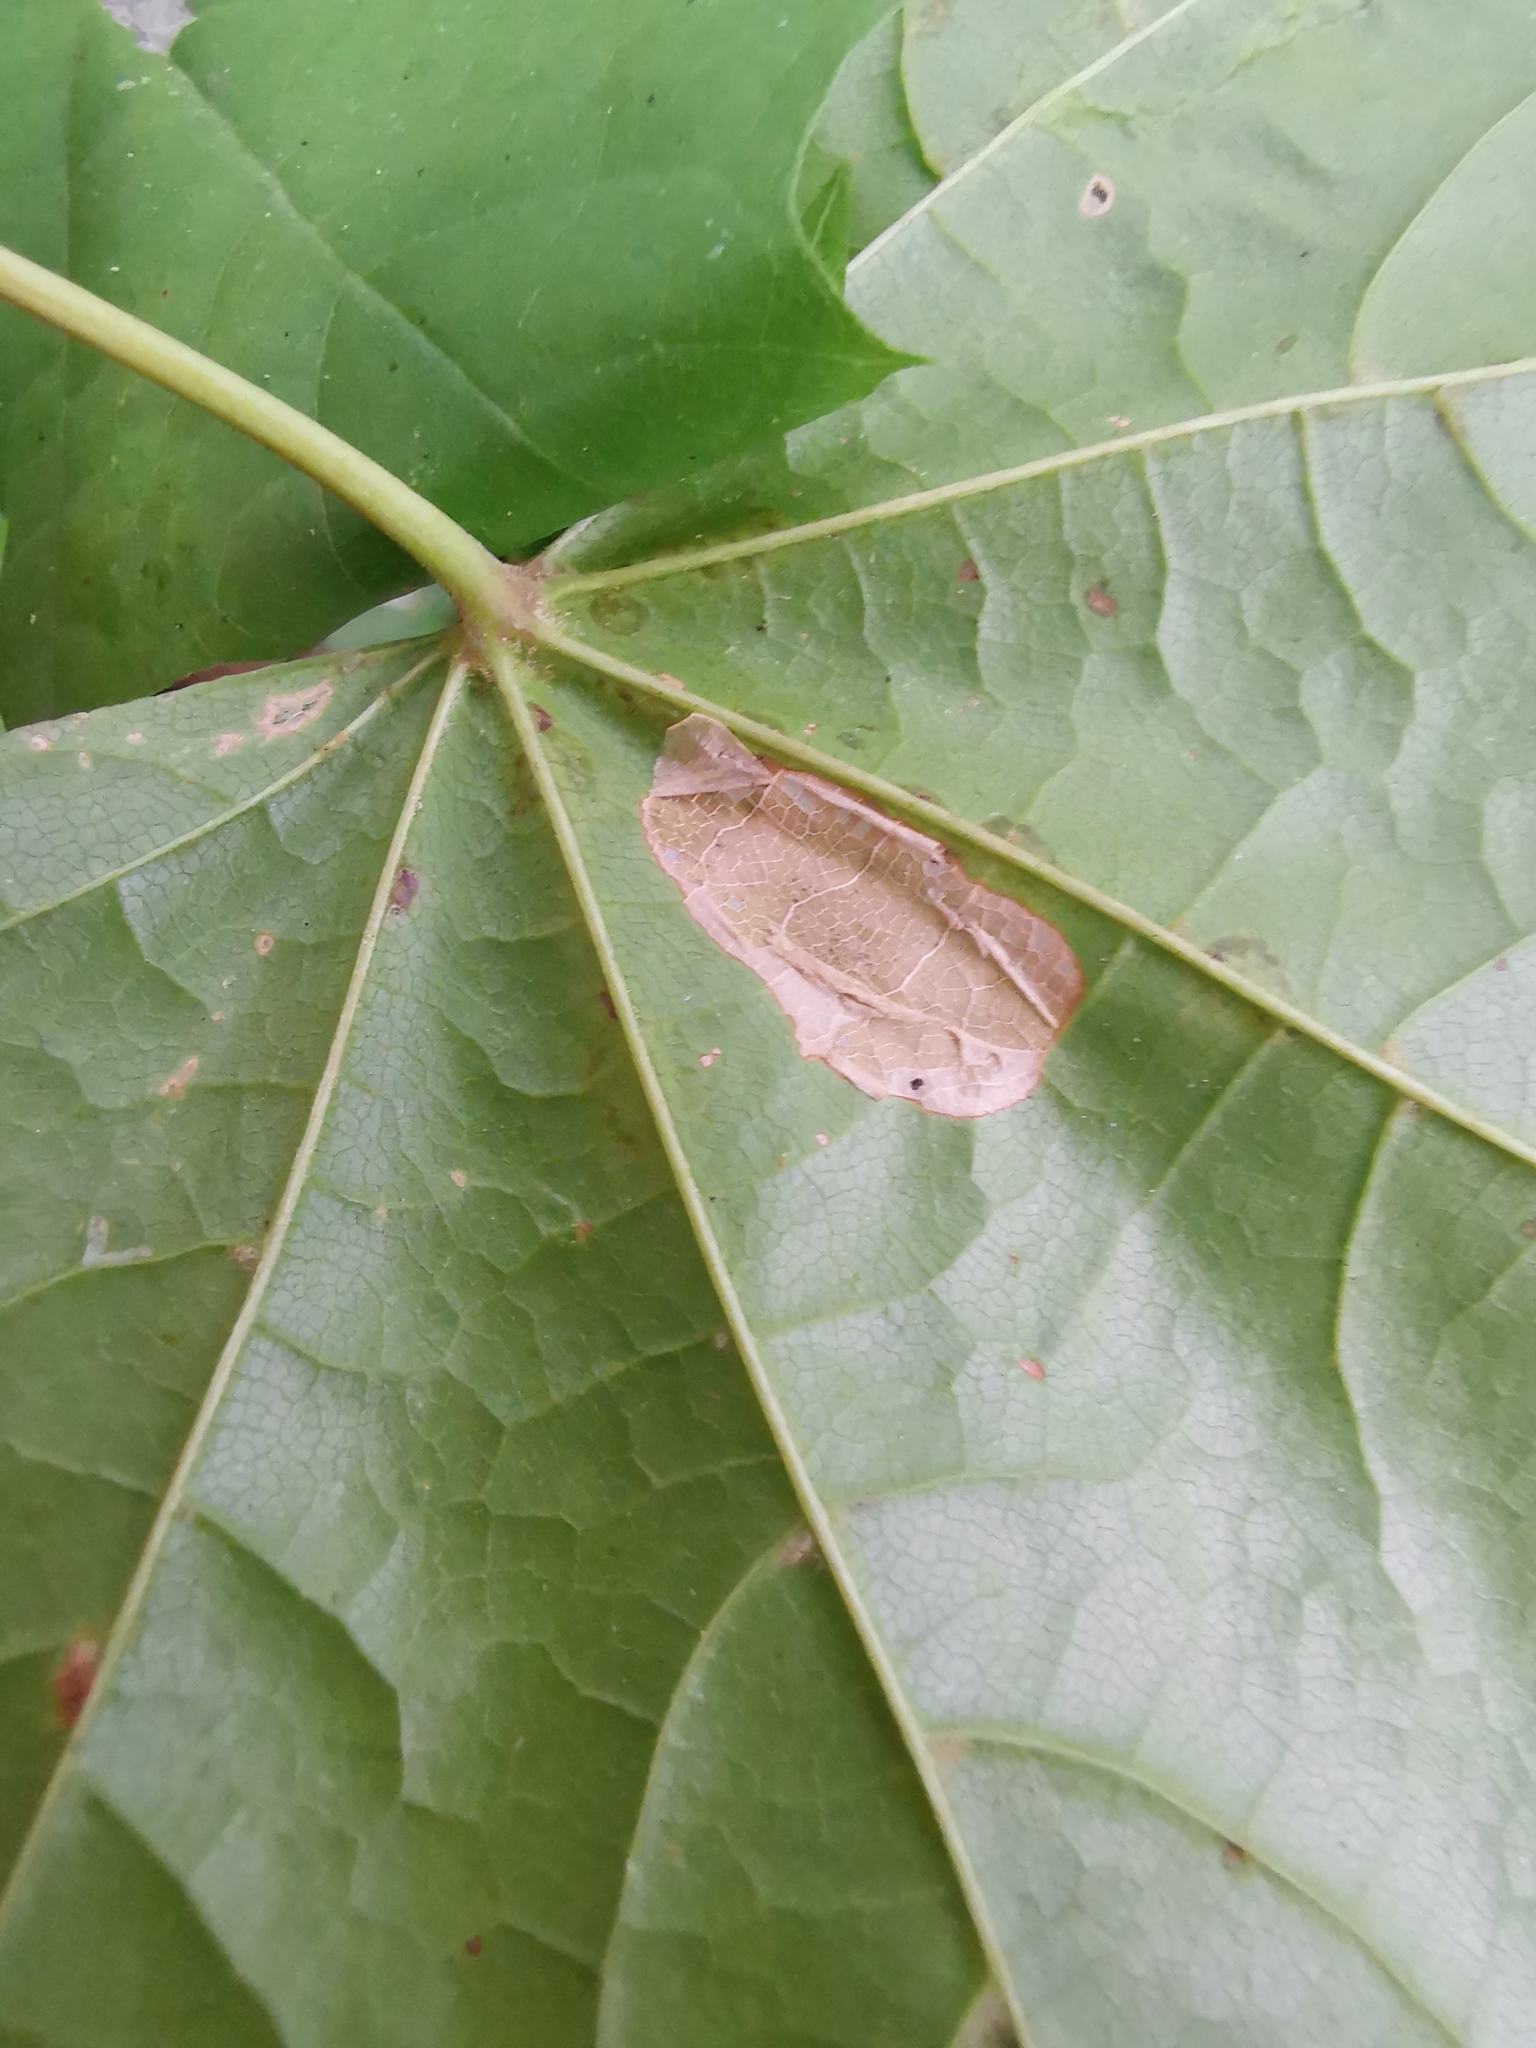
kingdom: Animalia
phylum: Arthropoda
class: Insecta
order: Lepidoptera
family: Gracillariidae
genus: Phyllonorycter
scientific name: Phyllonorycter joannisi
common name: White-bodied midget
